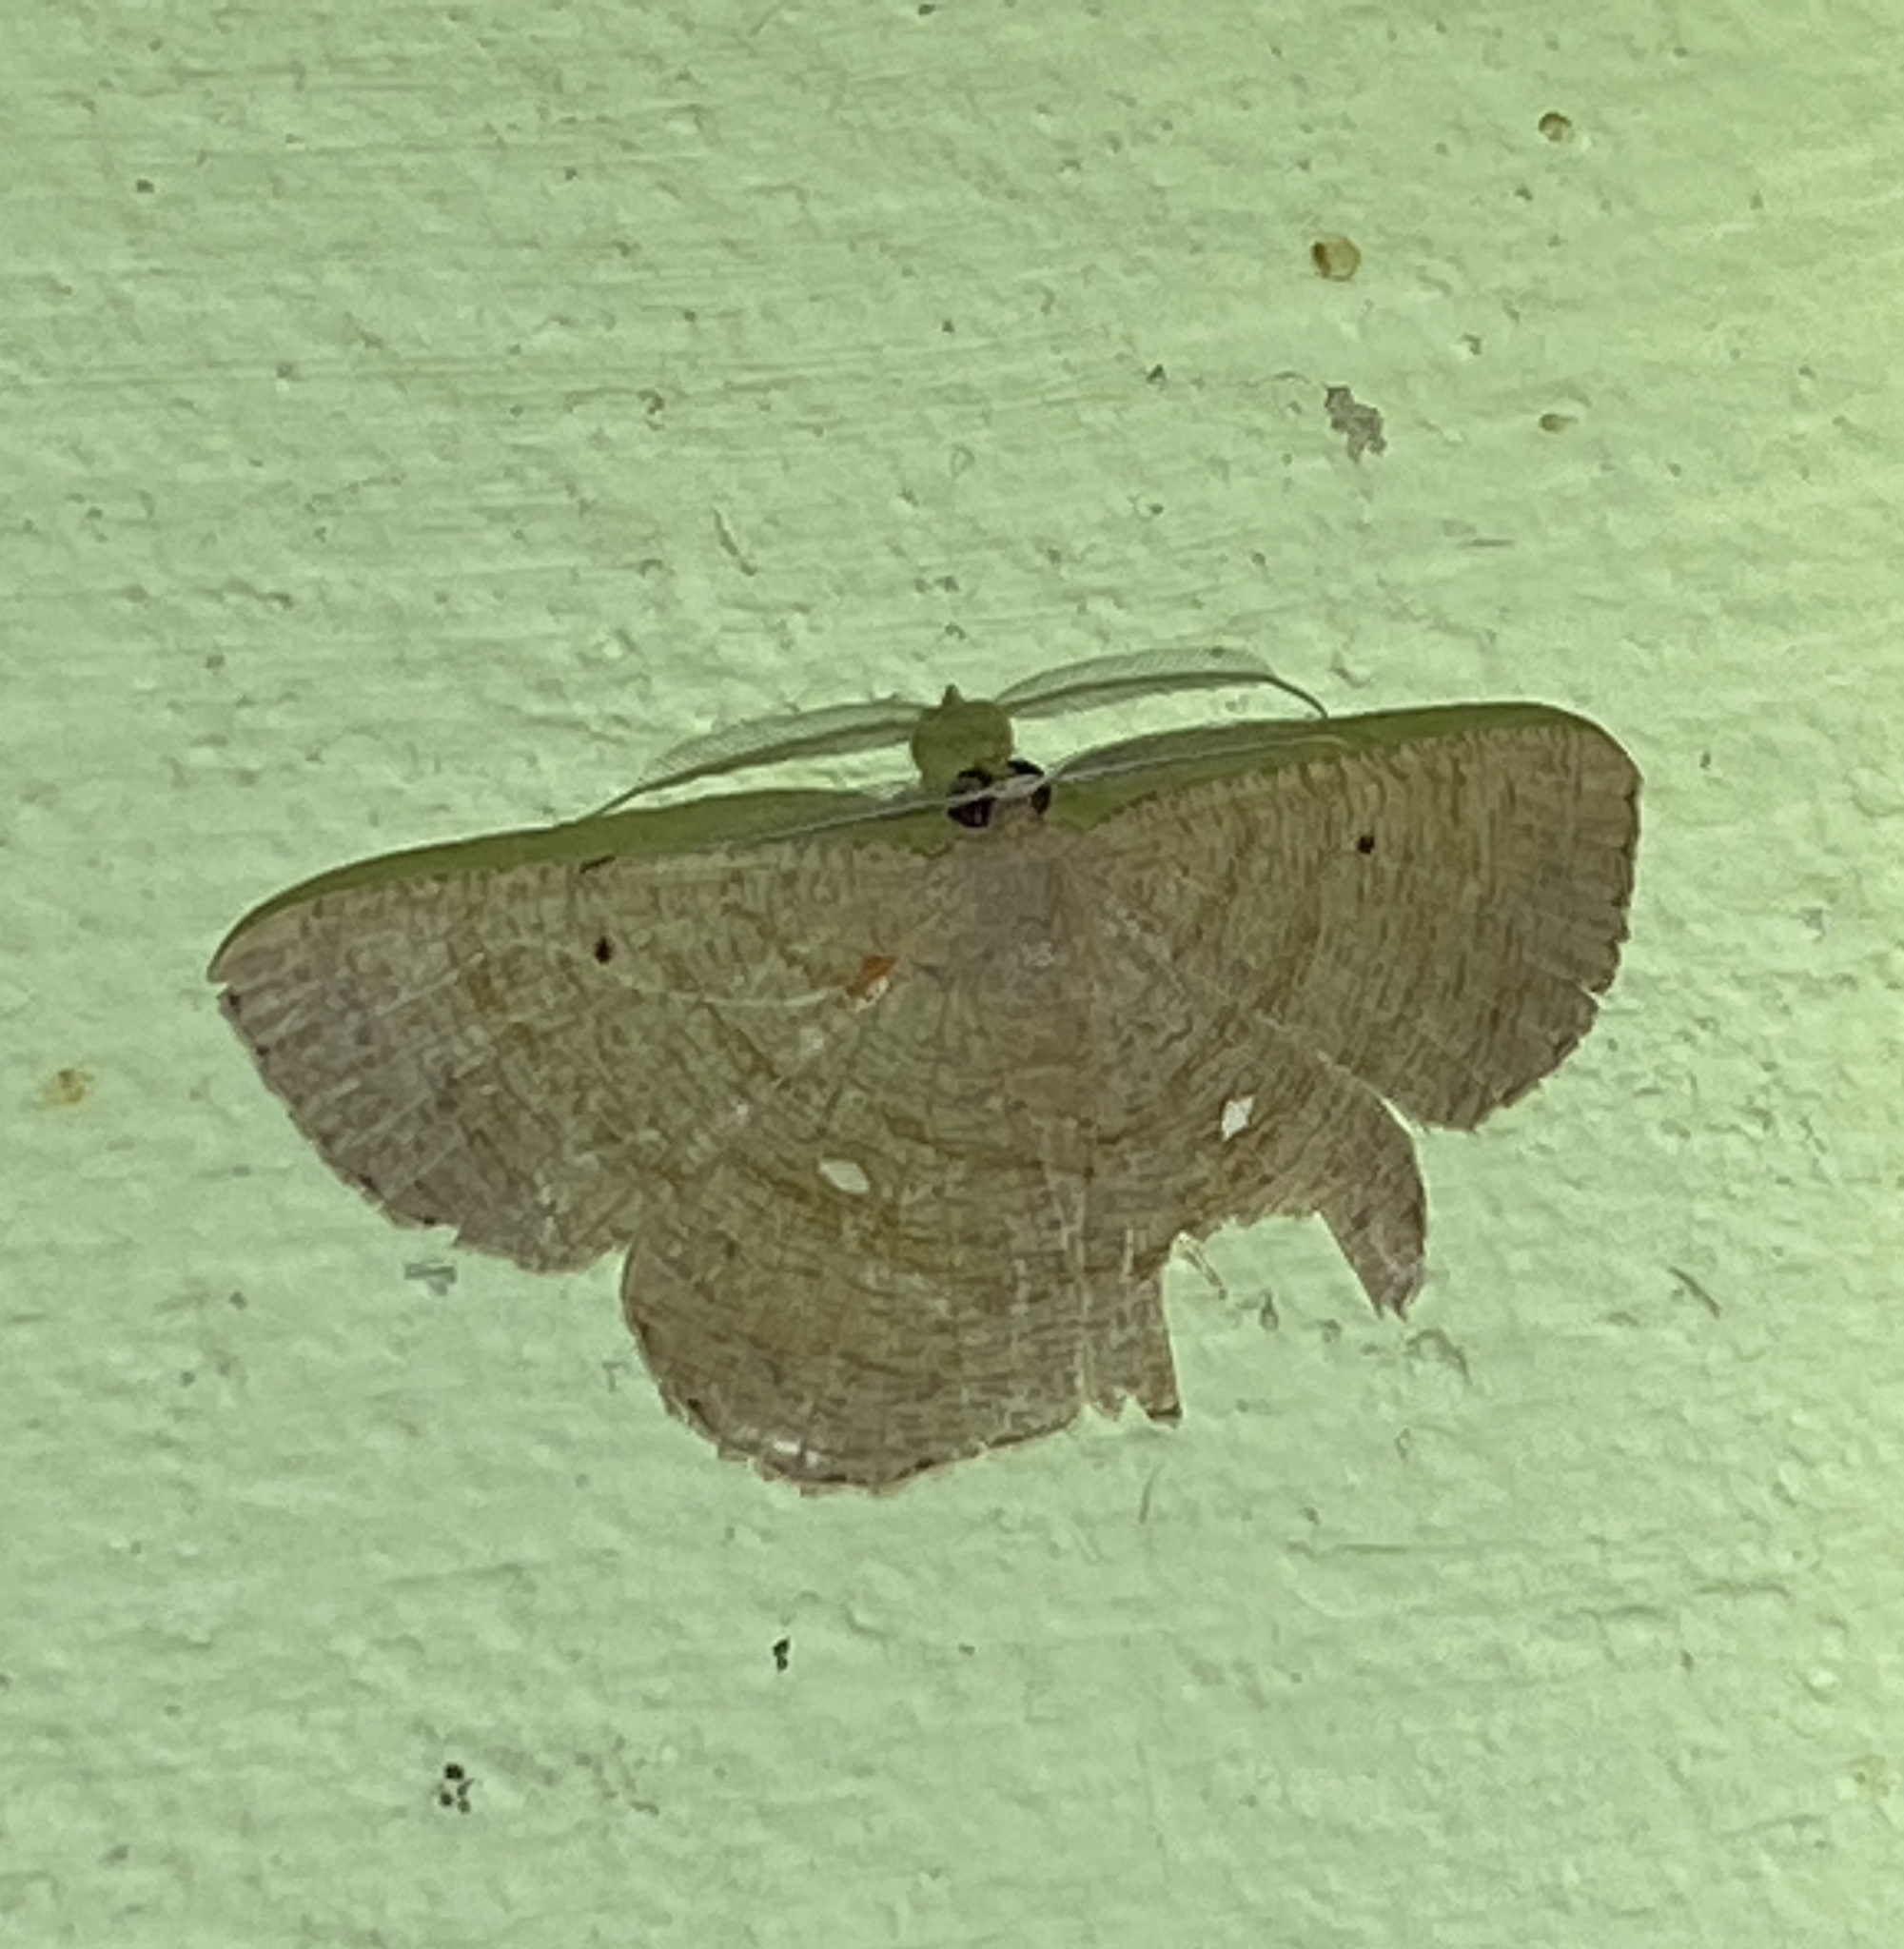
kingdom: Animalia
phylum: Arthropoda
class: Insecta
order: Lepidoptera
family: Geometridae
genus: Parilexia
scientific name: Parilexia nicetaria
